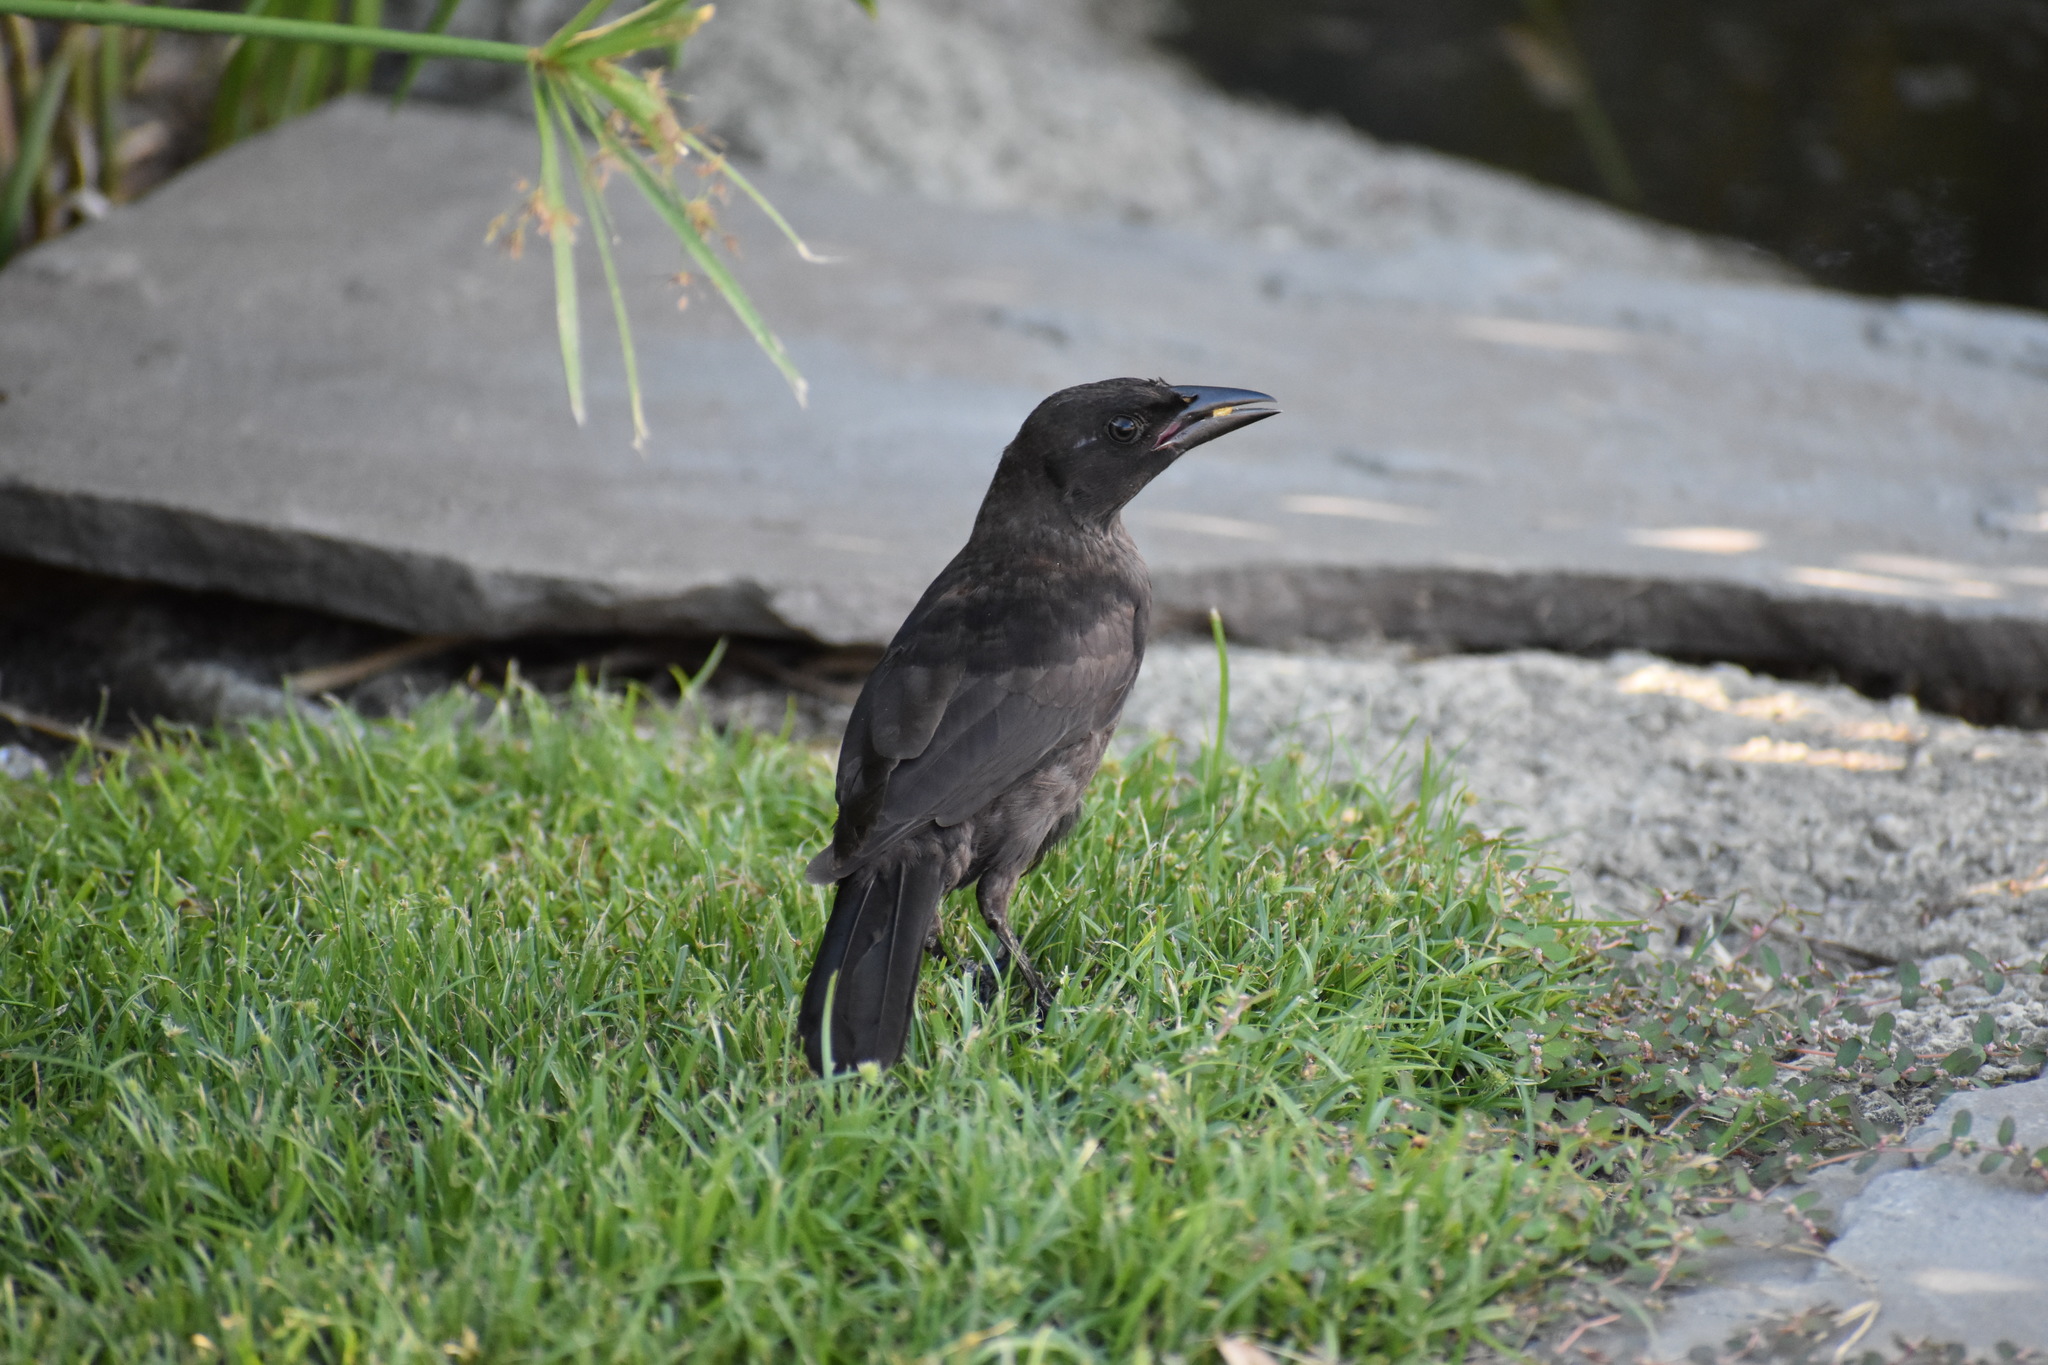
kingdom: Animalia
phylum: Chordata
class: Aves
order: Passeriformes
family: Icteridae
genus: Quiscalus
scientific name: Quiscalus quiscula
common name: Common grackle
